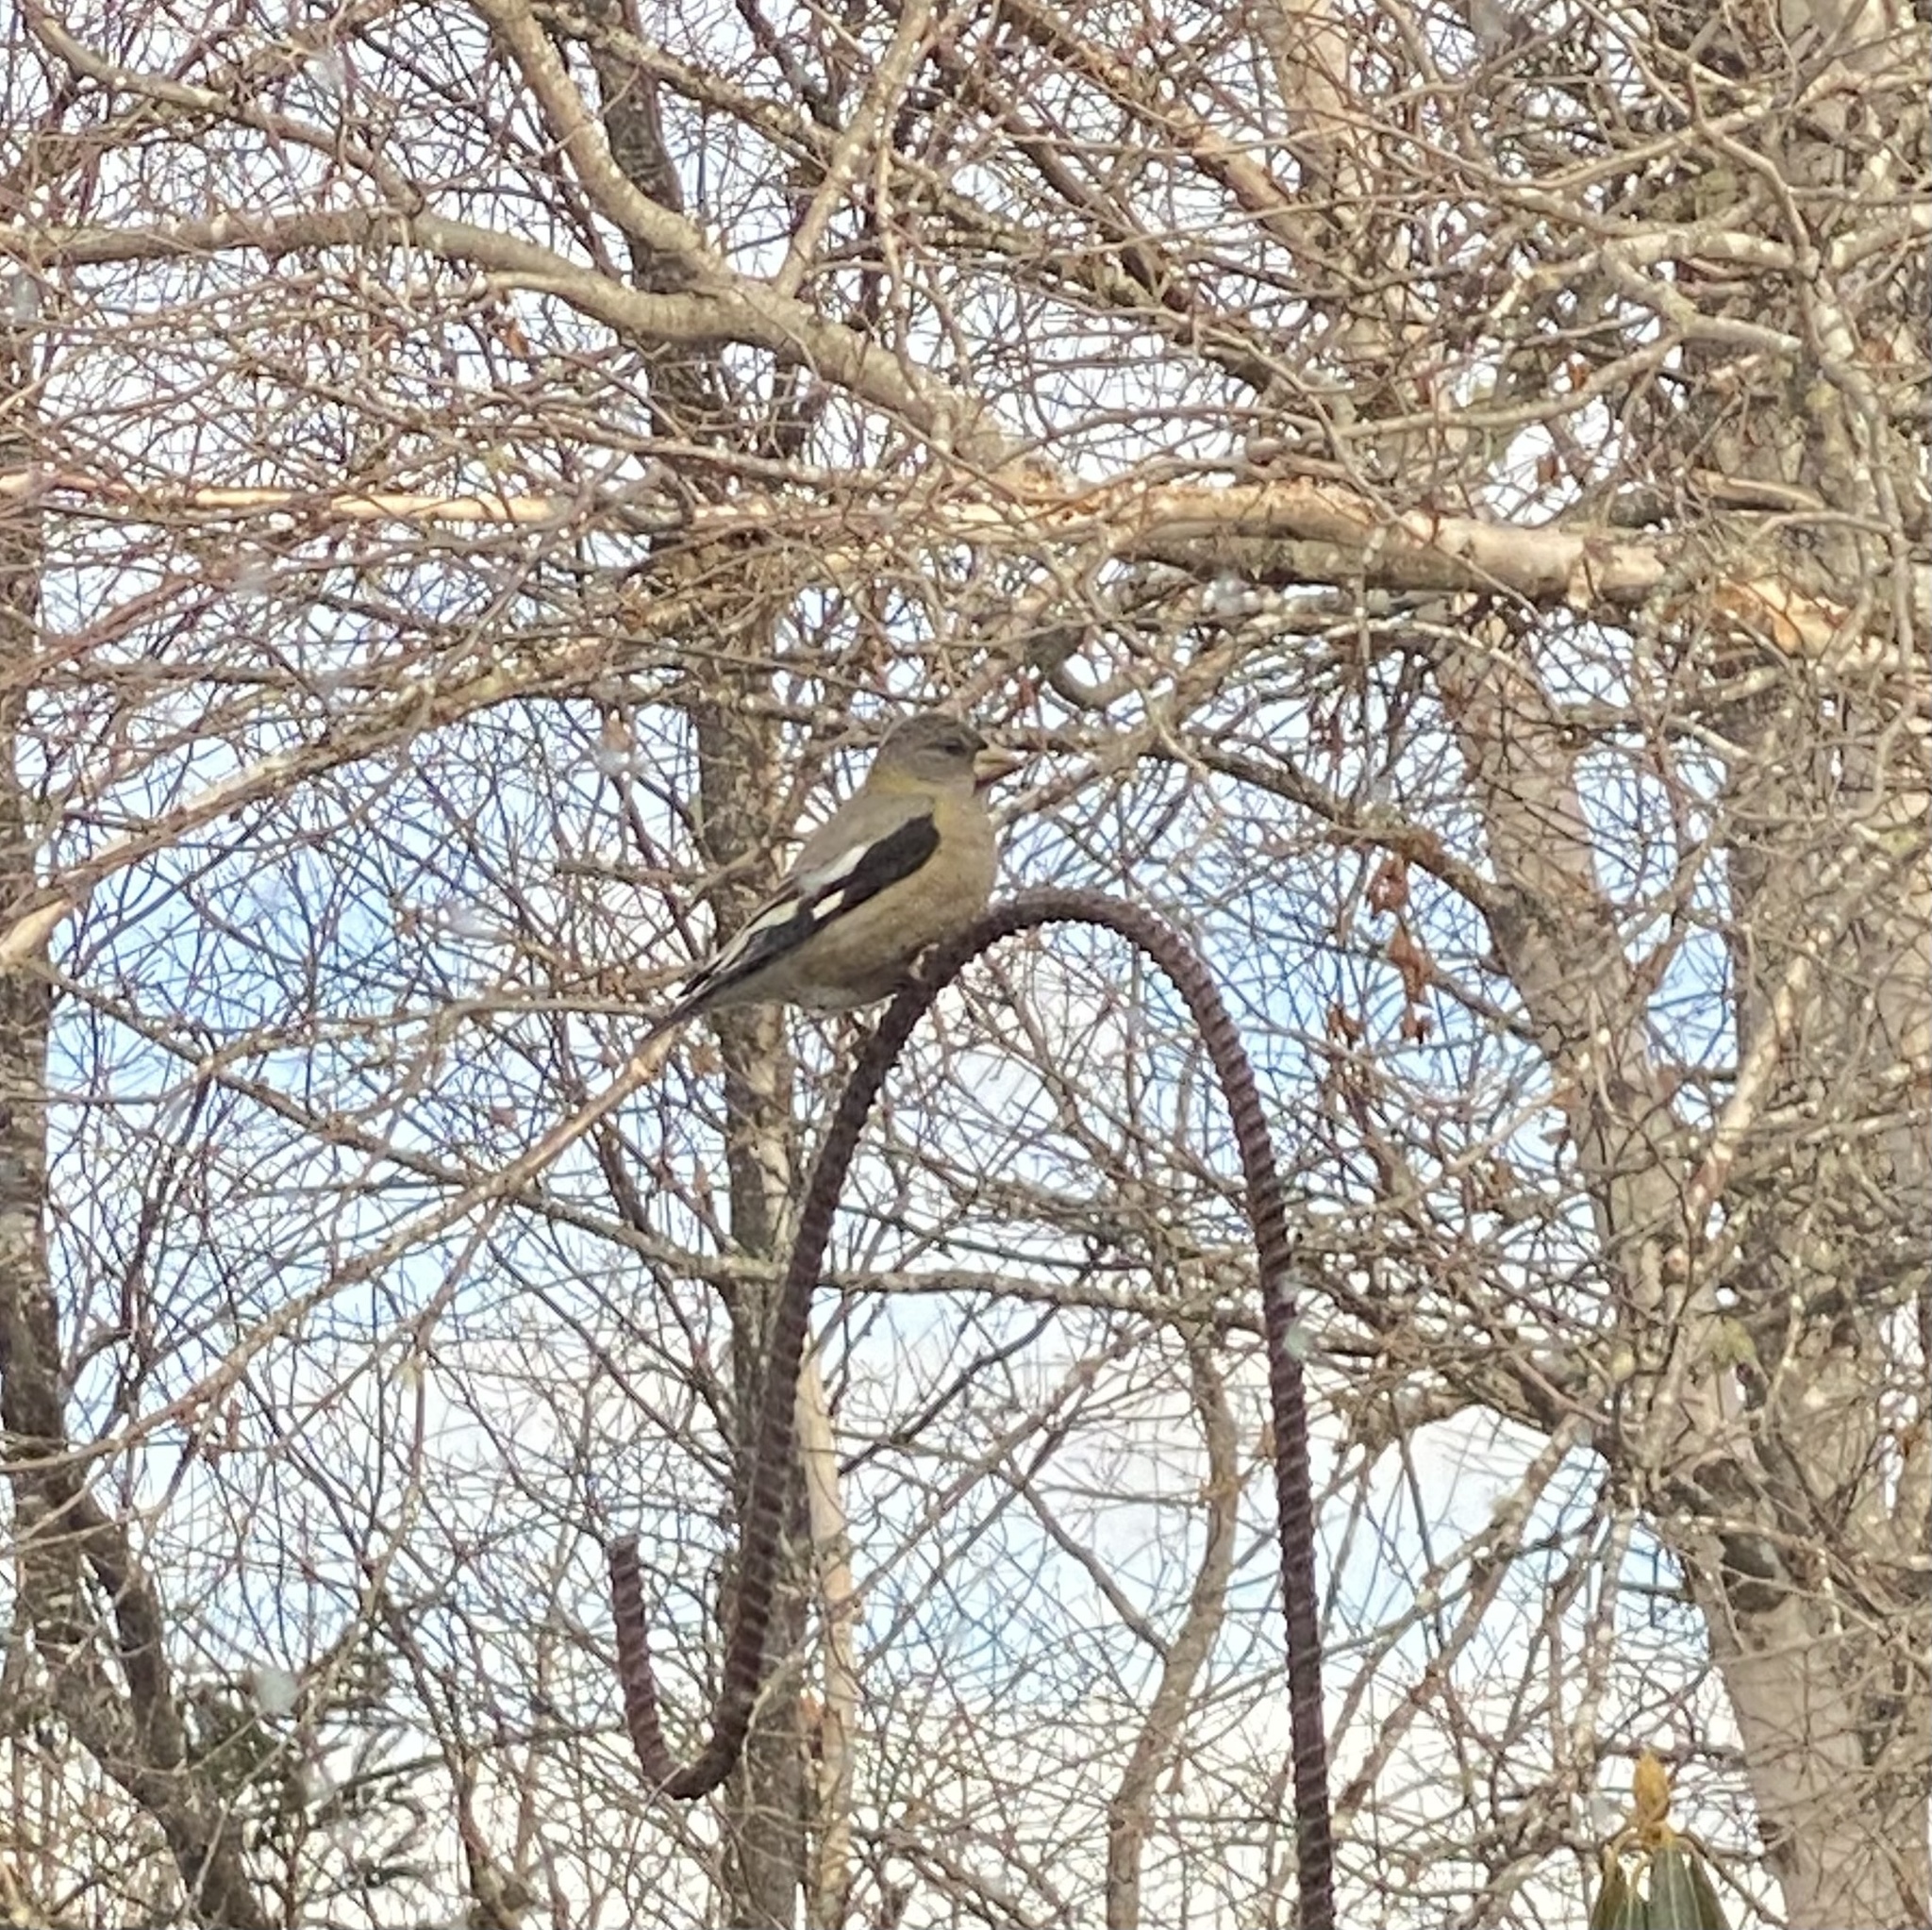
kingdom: Animalia
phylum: Chordata
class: Aves
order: Passeriformes
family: Fringillidae
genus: Hesperiphona
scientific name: Hesperiphona vespertina
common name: Evening grosbeak
